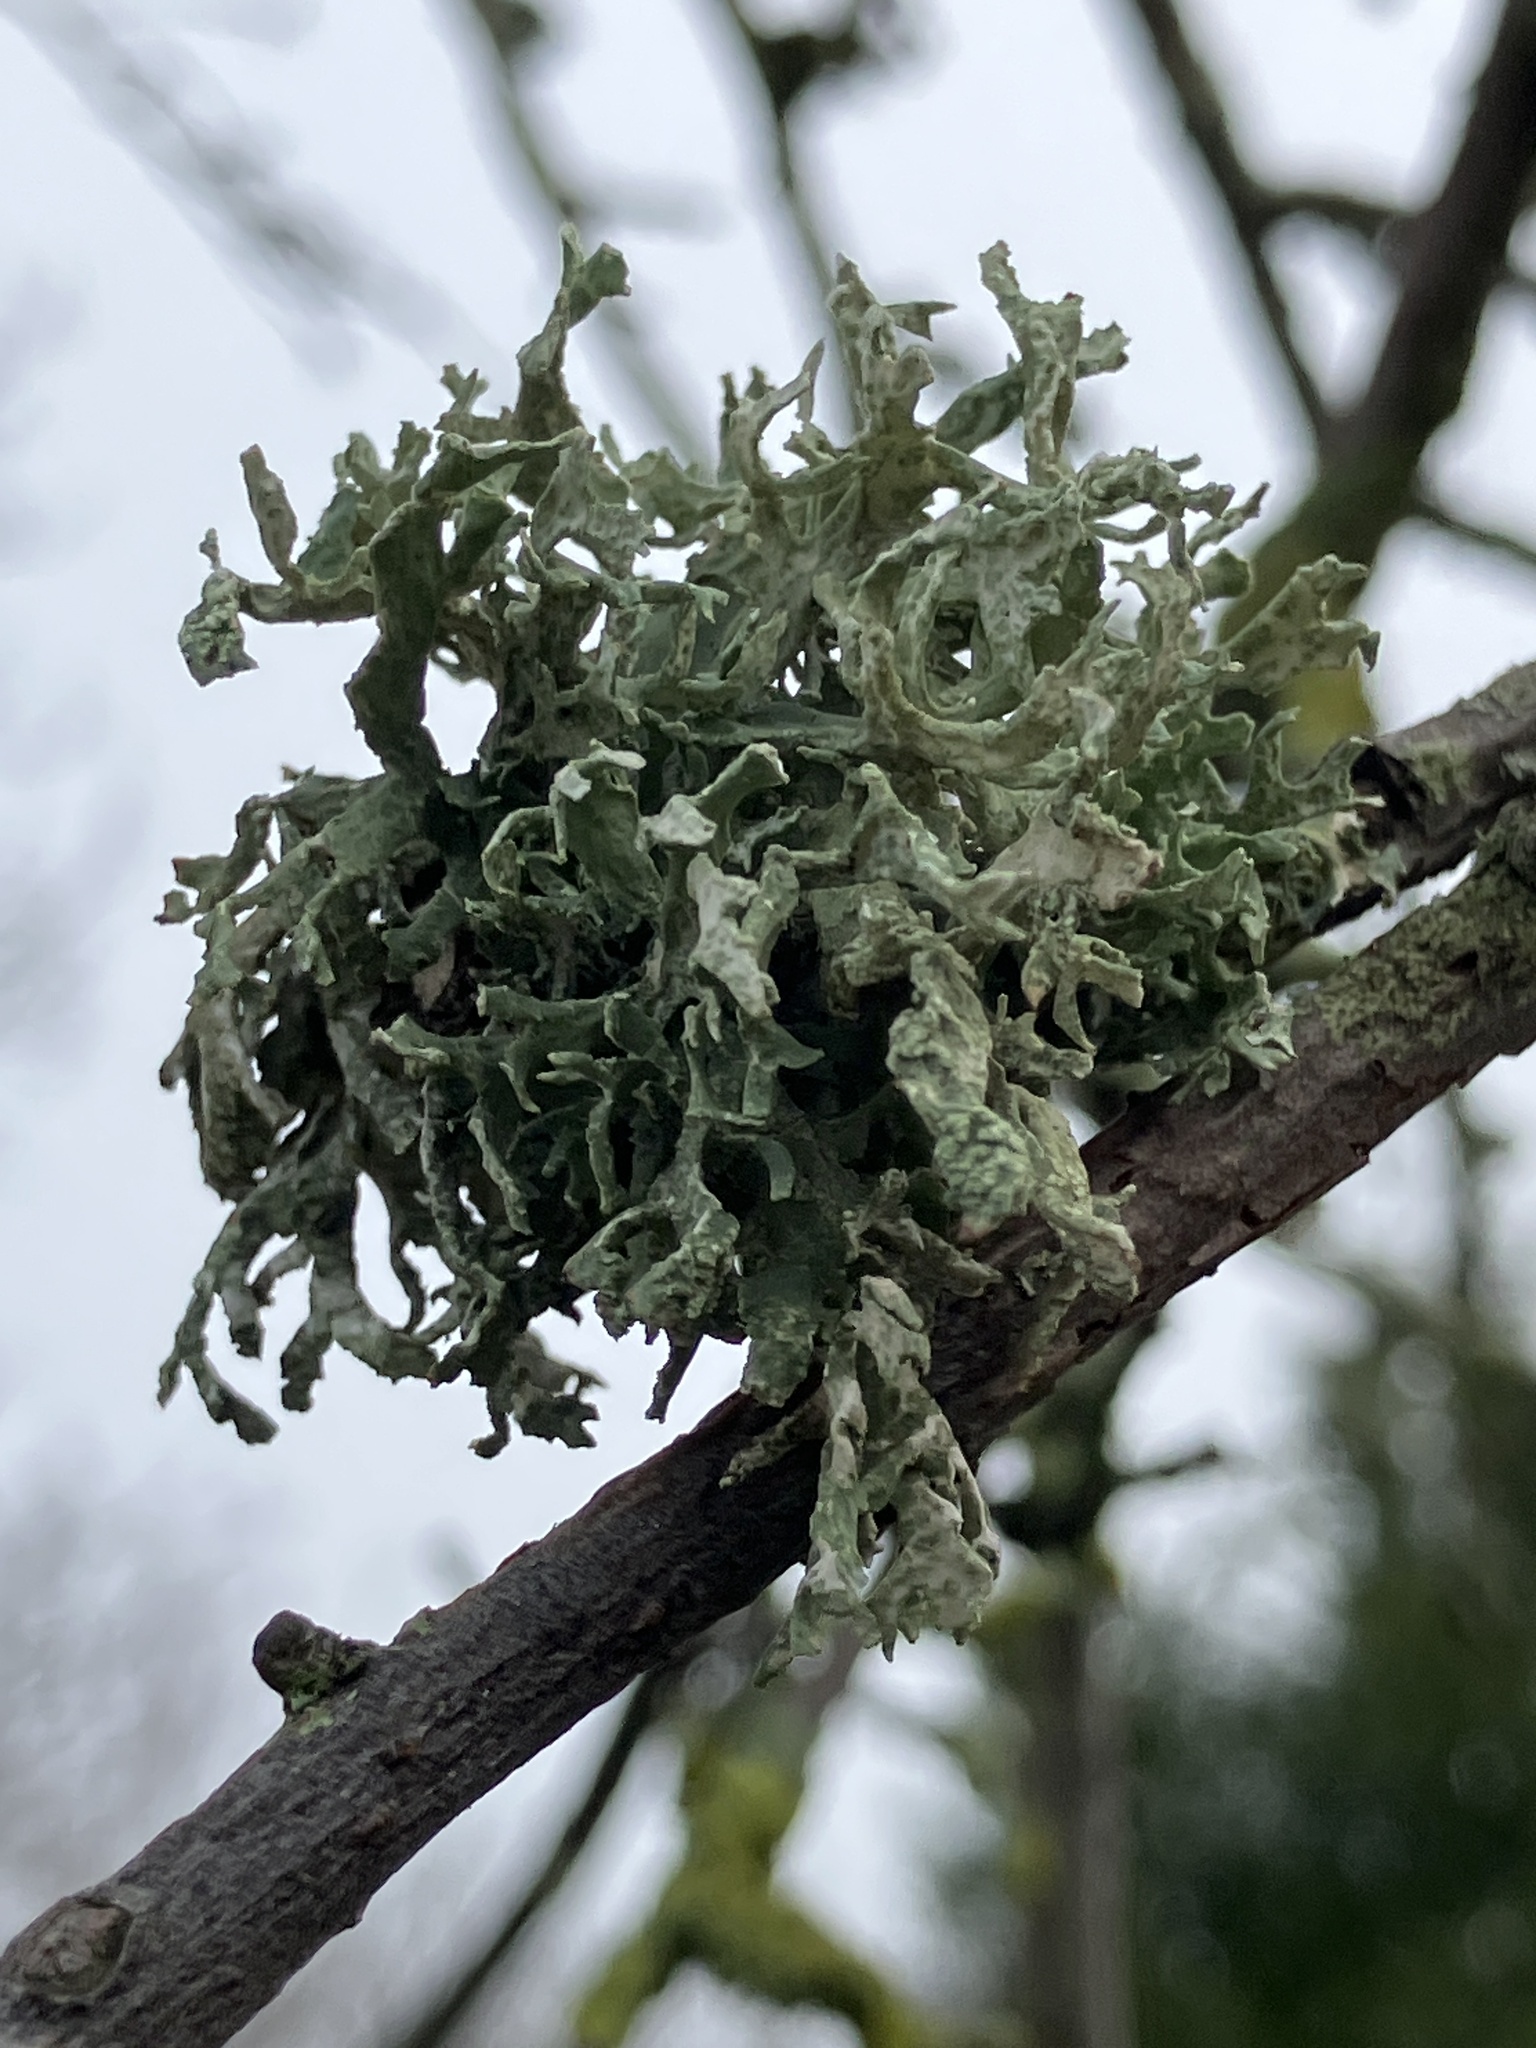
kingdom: Fungi
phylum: Ascomycota
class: Lecanoromycetes
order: Lecanorales
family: Parmeliaceae
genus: Evernia
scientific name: Evernia prunastri
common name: Oak moss
